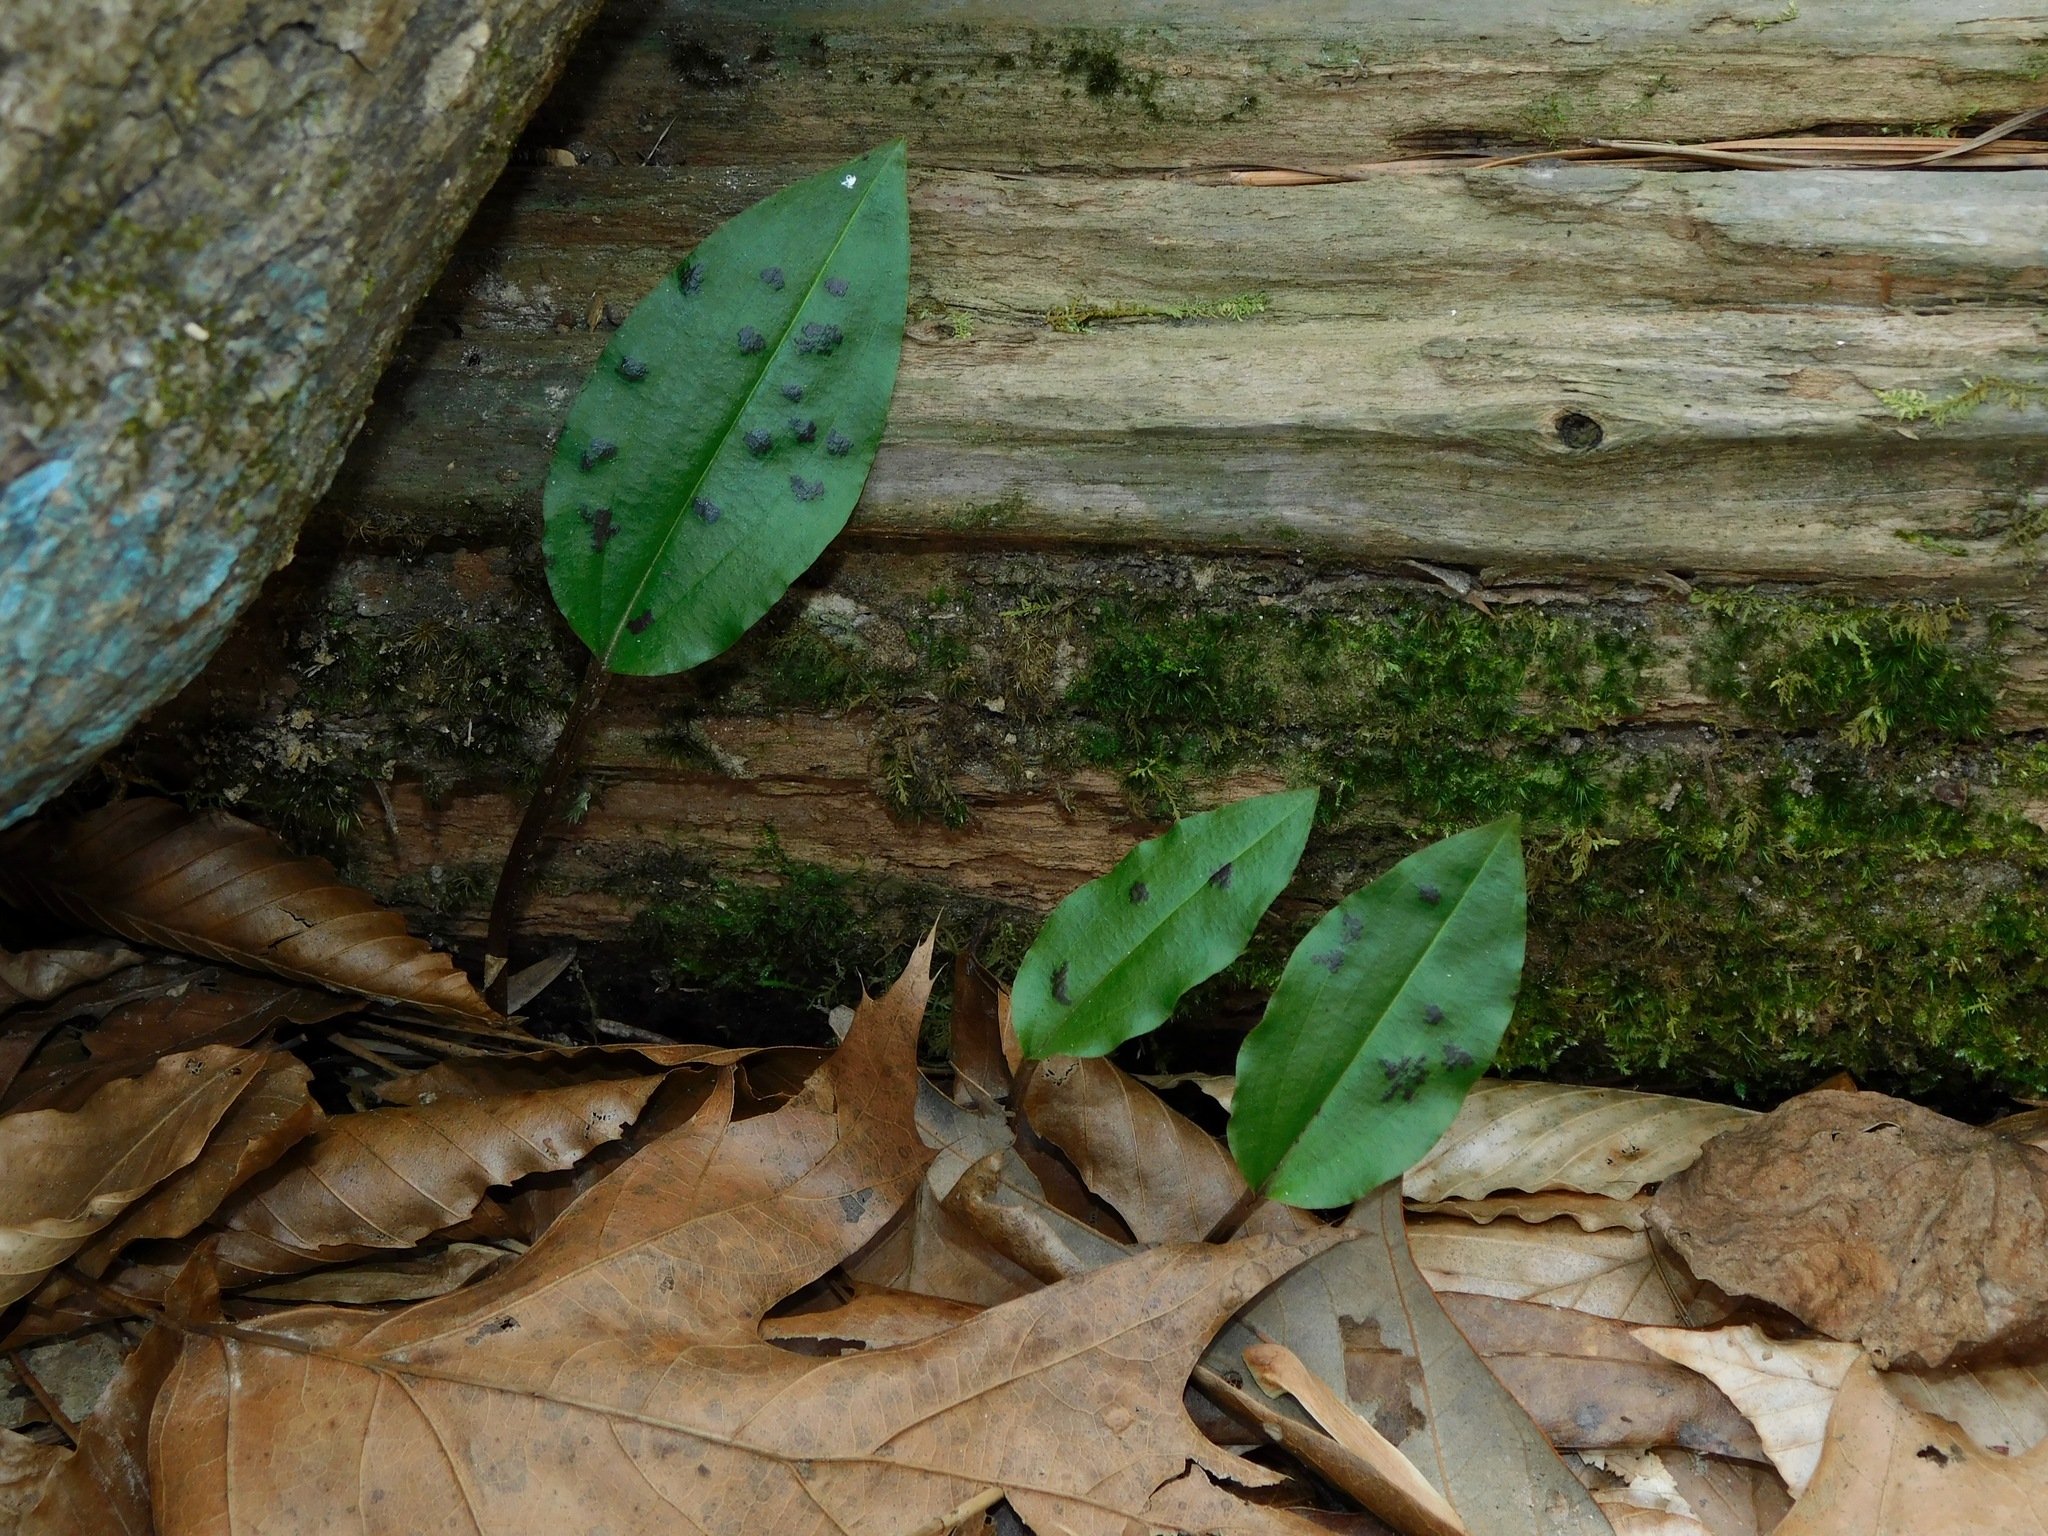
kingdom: Plantae
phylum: Tracheophyta
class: Liliopsida
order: Asparagales
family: Orchidaceae
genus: Tipularia
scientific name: Tipularia discolor
